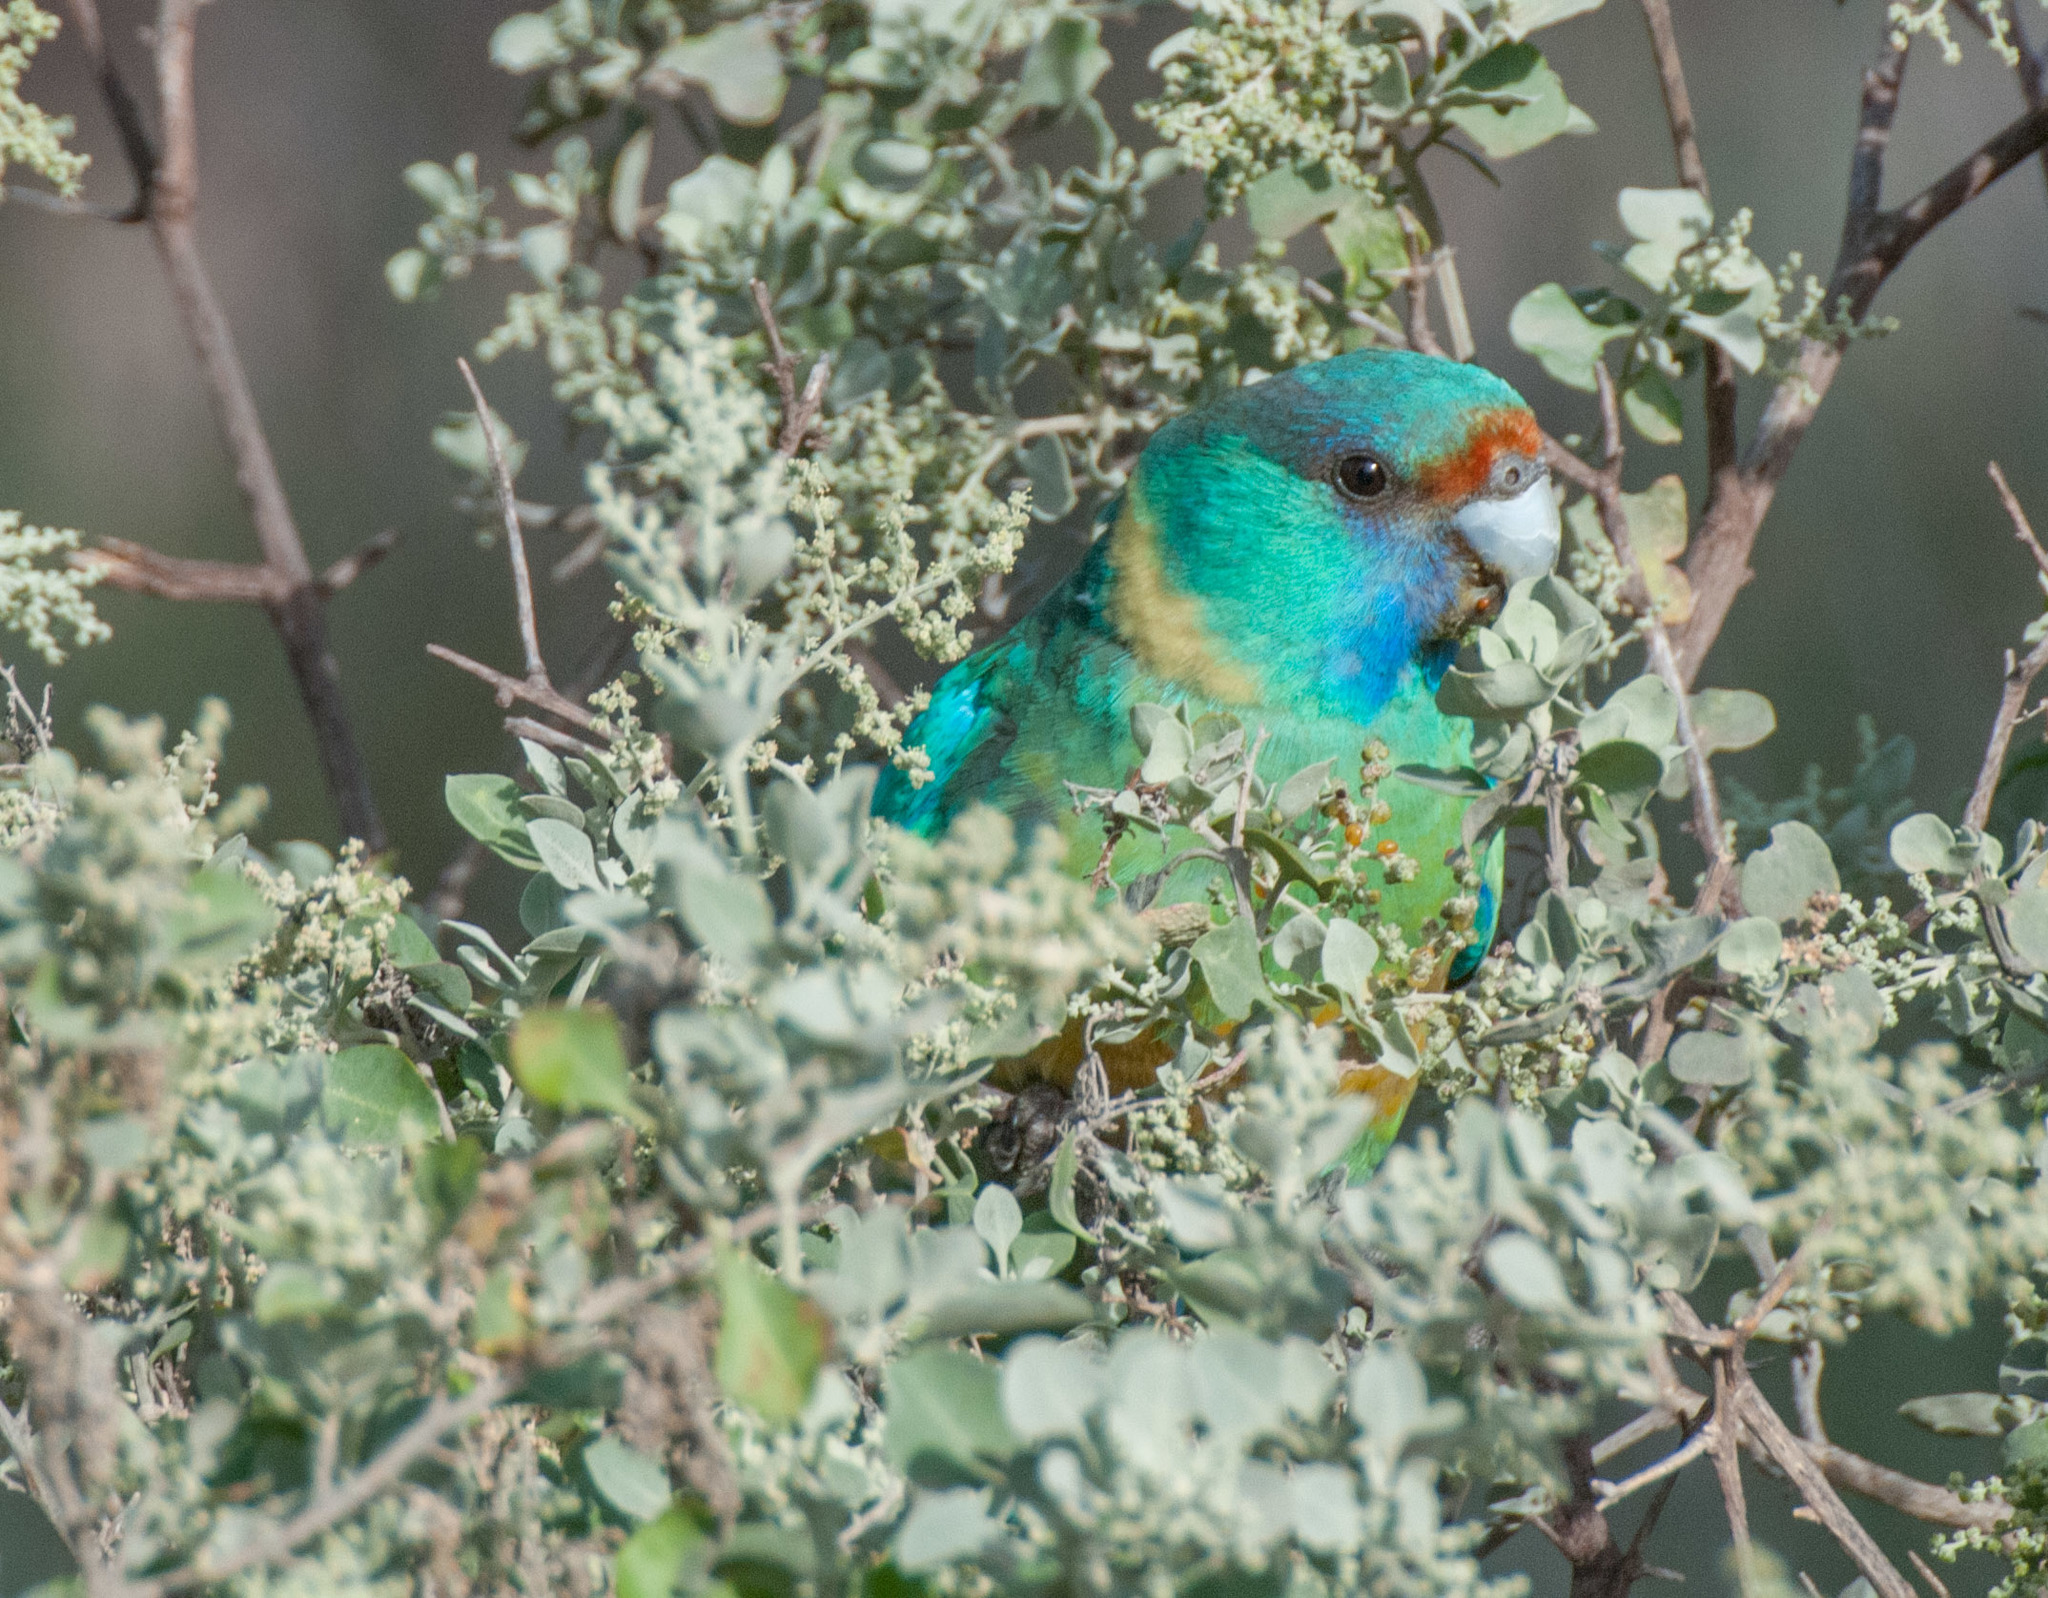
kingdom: Animalia
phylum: Chordata
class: Aves
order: Psittaciformes
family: Psittacidae
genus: Barnardius
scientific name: Barnardius zonarius
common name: Australian ringneck
